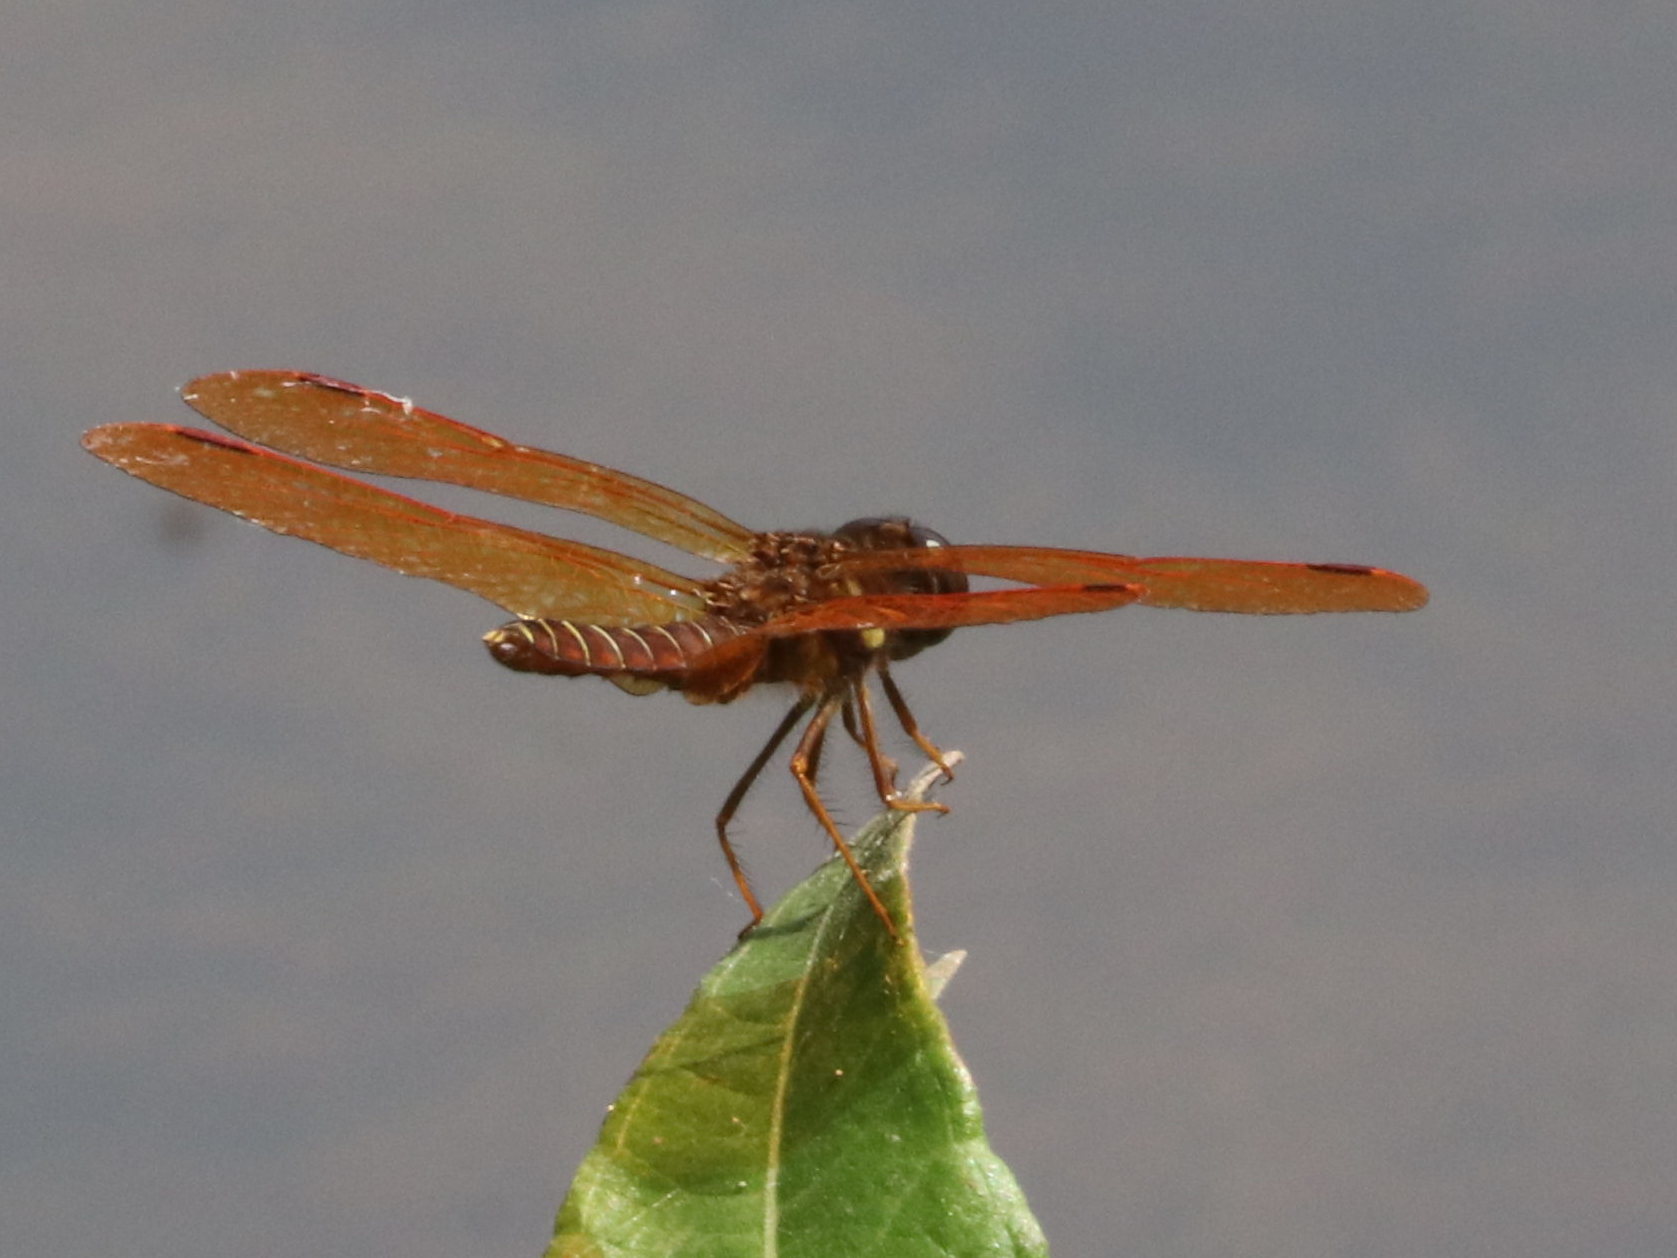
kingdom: Animalia
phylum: Arthropoda
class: Insecta
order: Odonata
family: Libellulidae
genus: Perithemis
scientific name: Perithemis tenera
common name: Eastern amberwing
